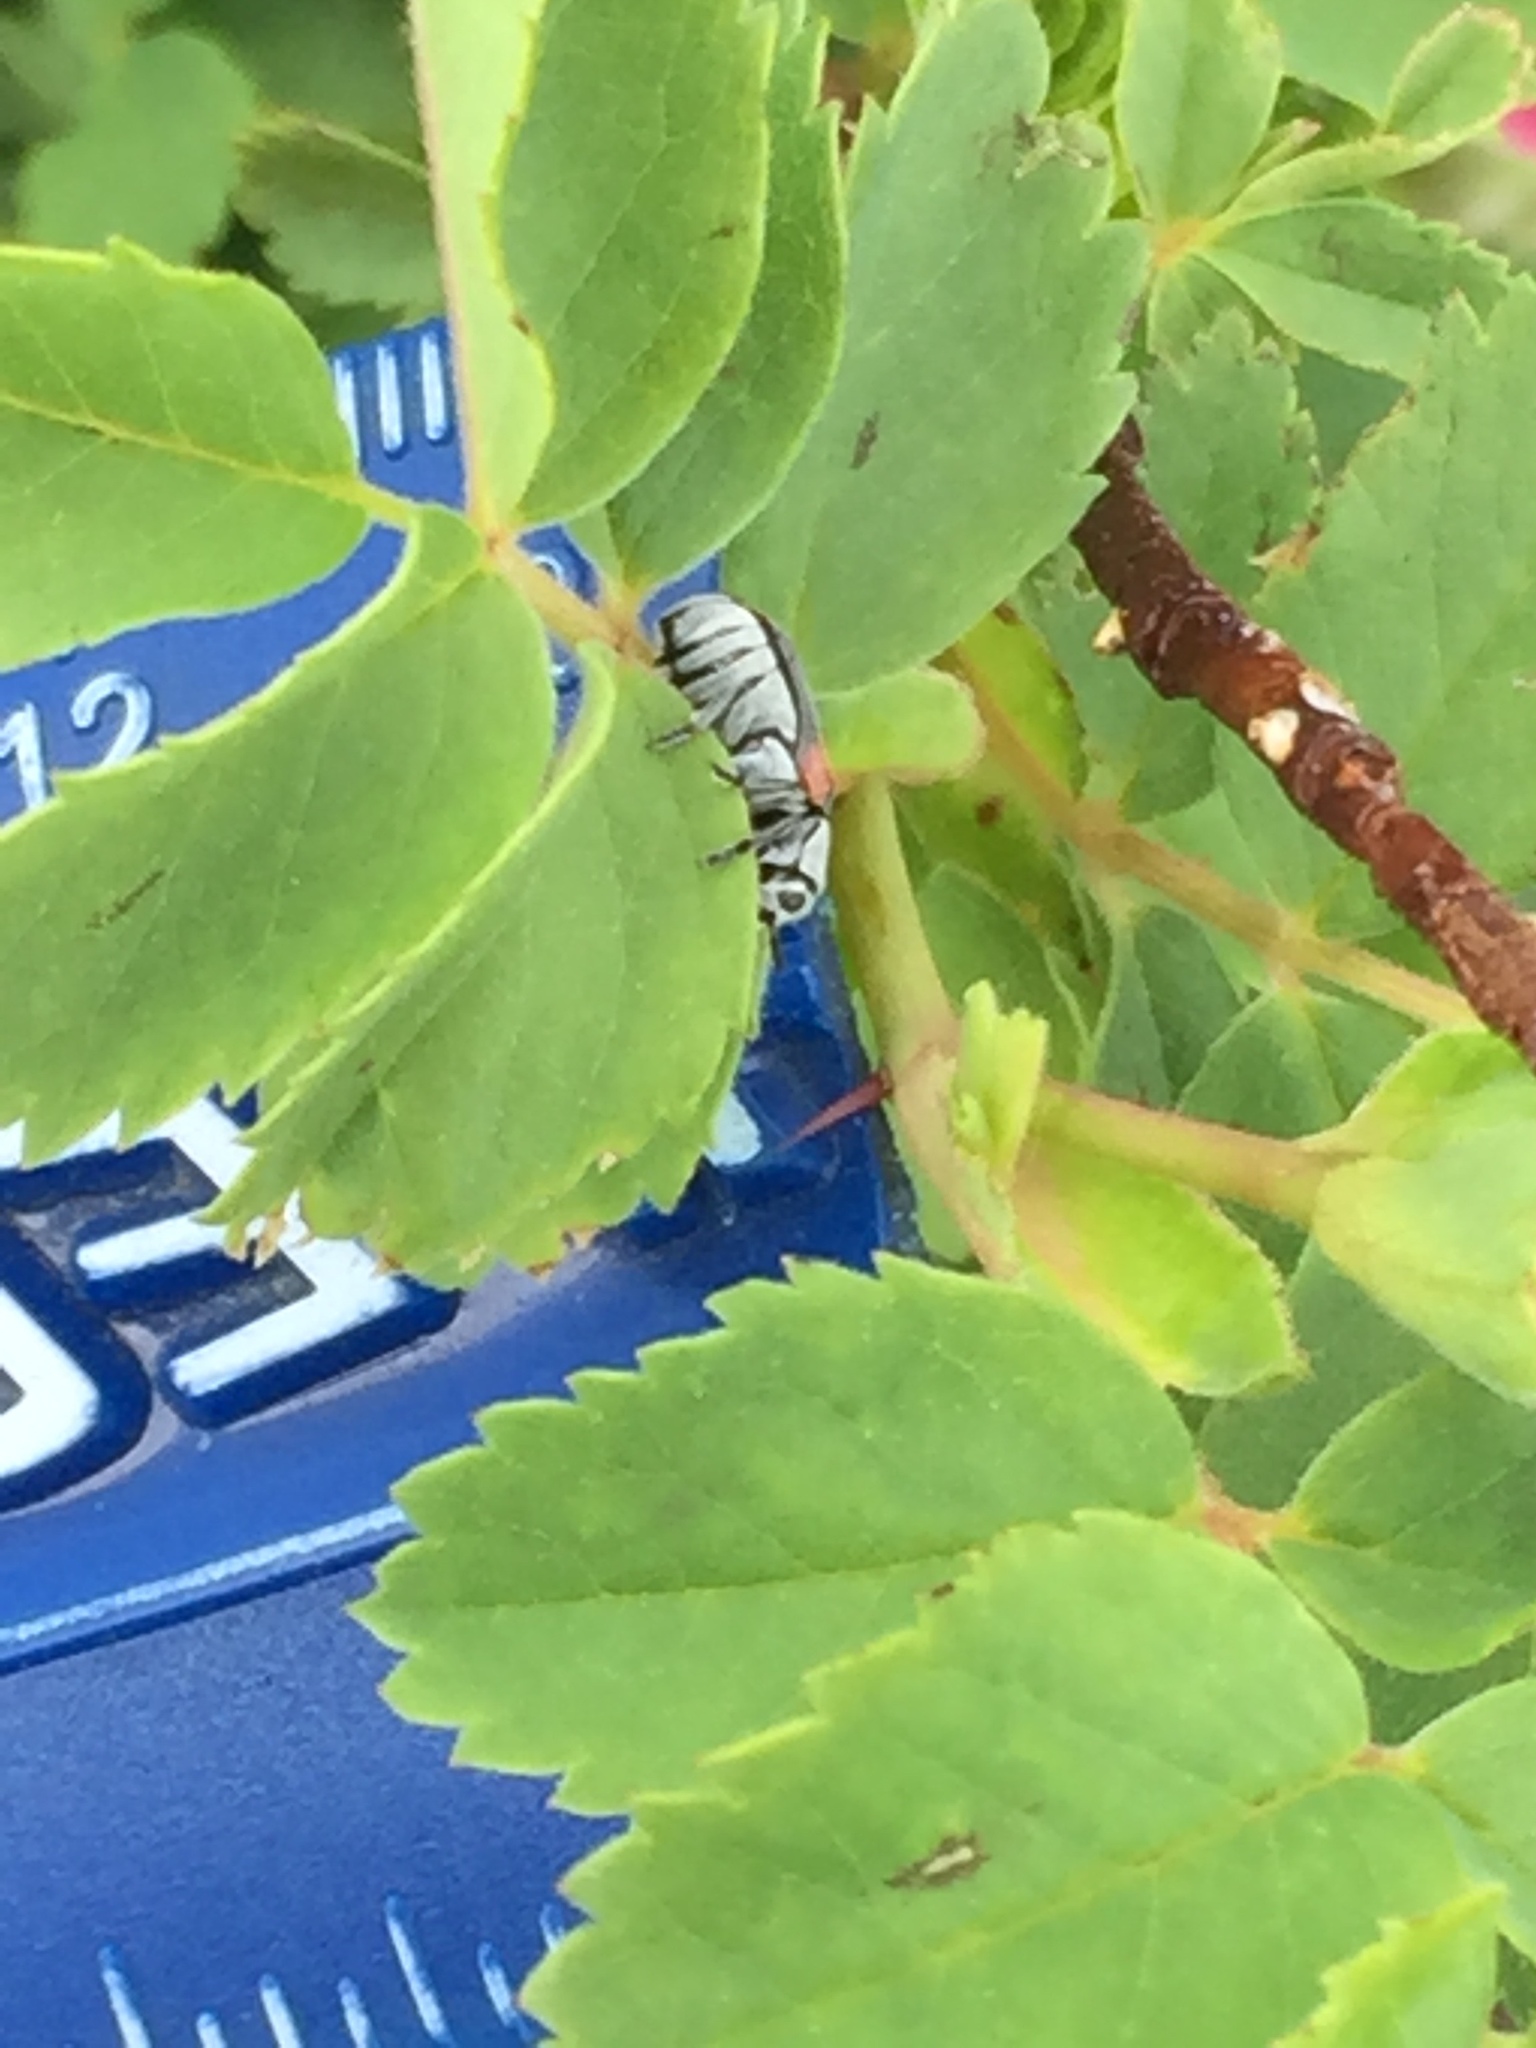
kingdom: Animalia
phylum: Arthropoda
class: Insecta
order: Coleoptera
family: Chrysomelidae
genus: Coleothorpa
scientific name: Coleothorpa vittigera
